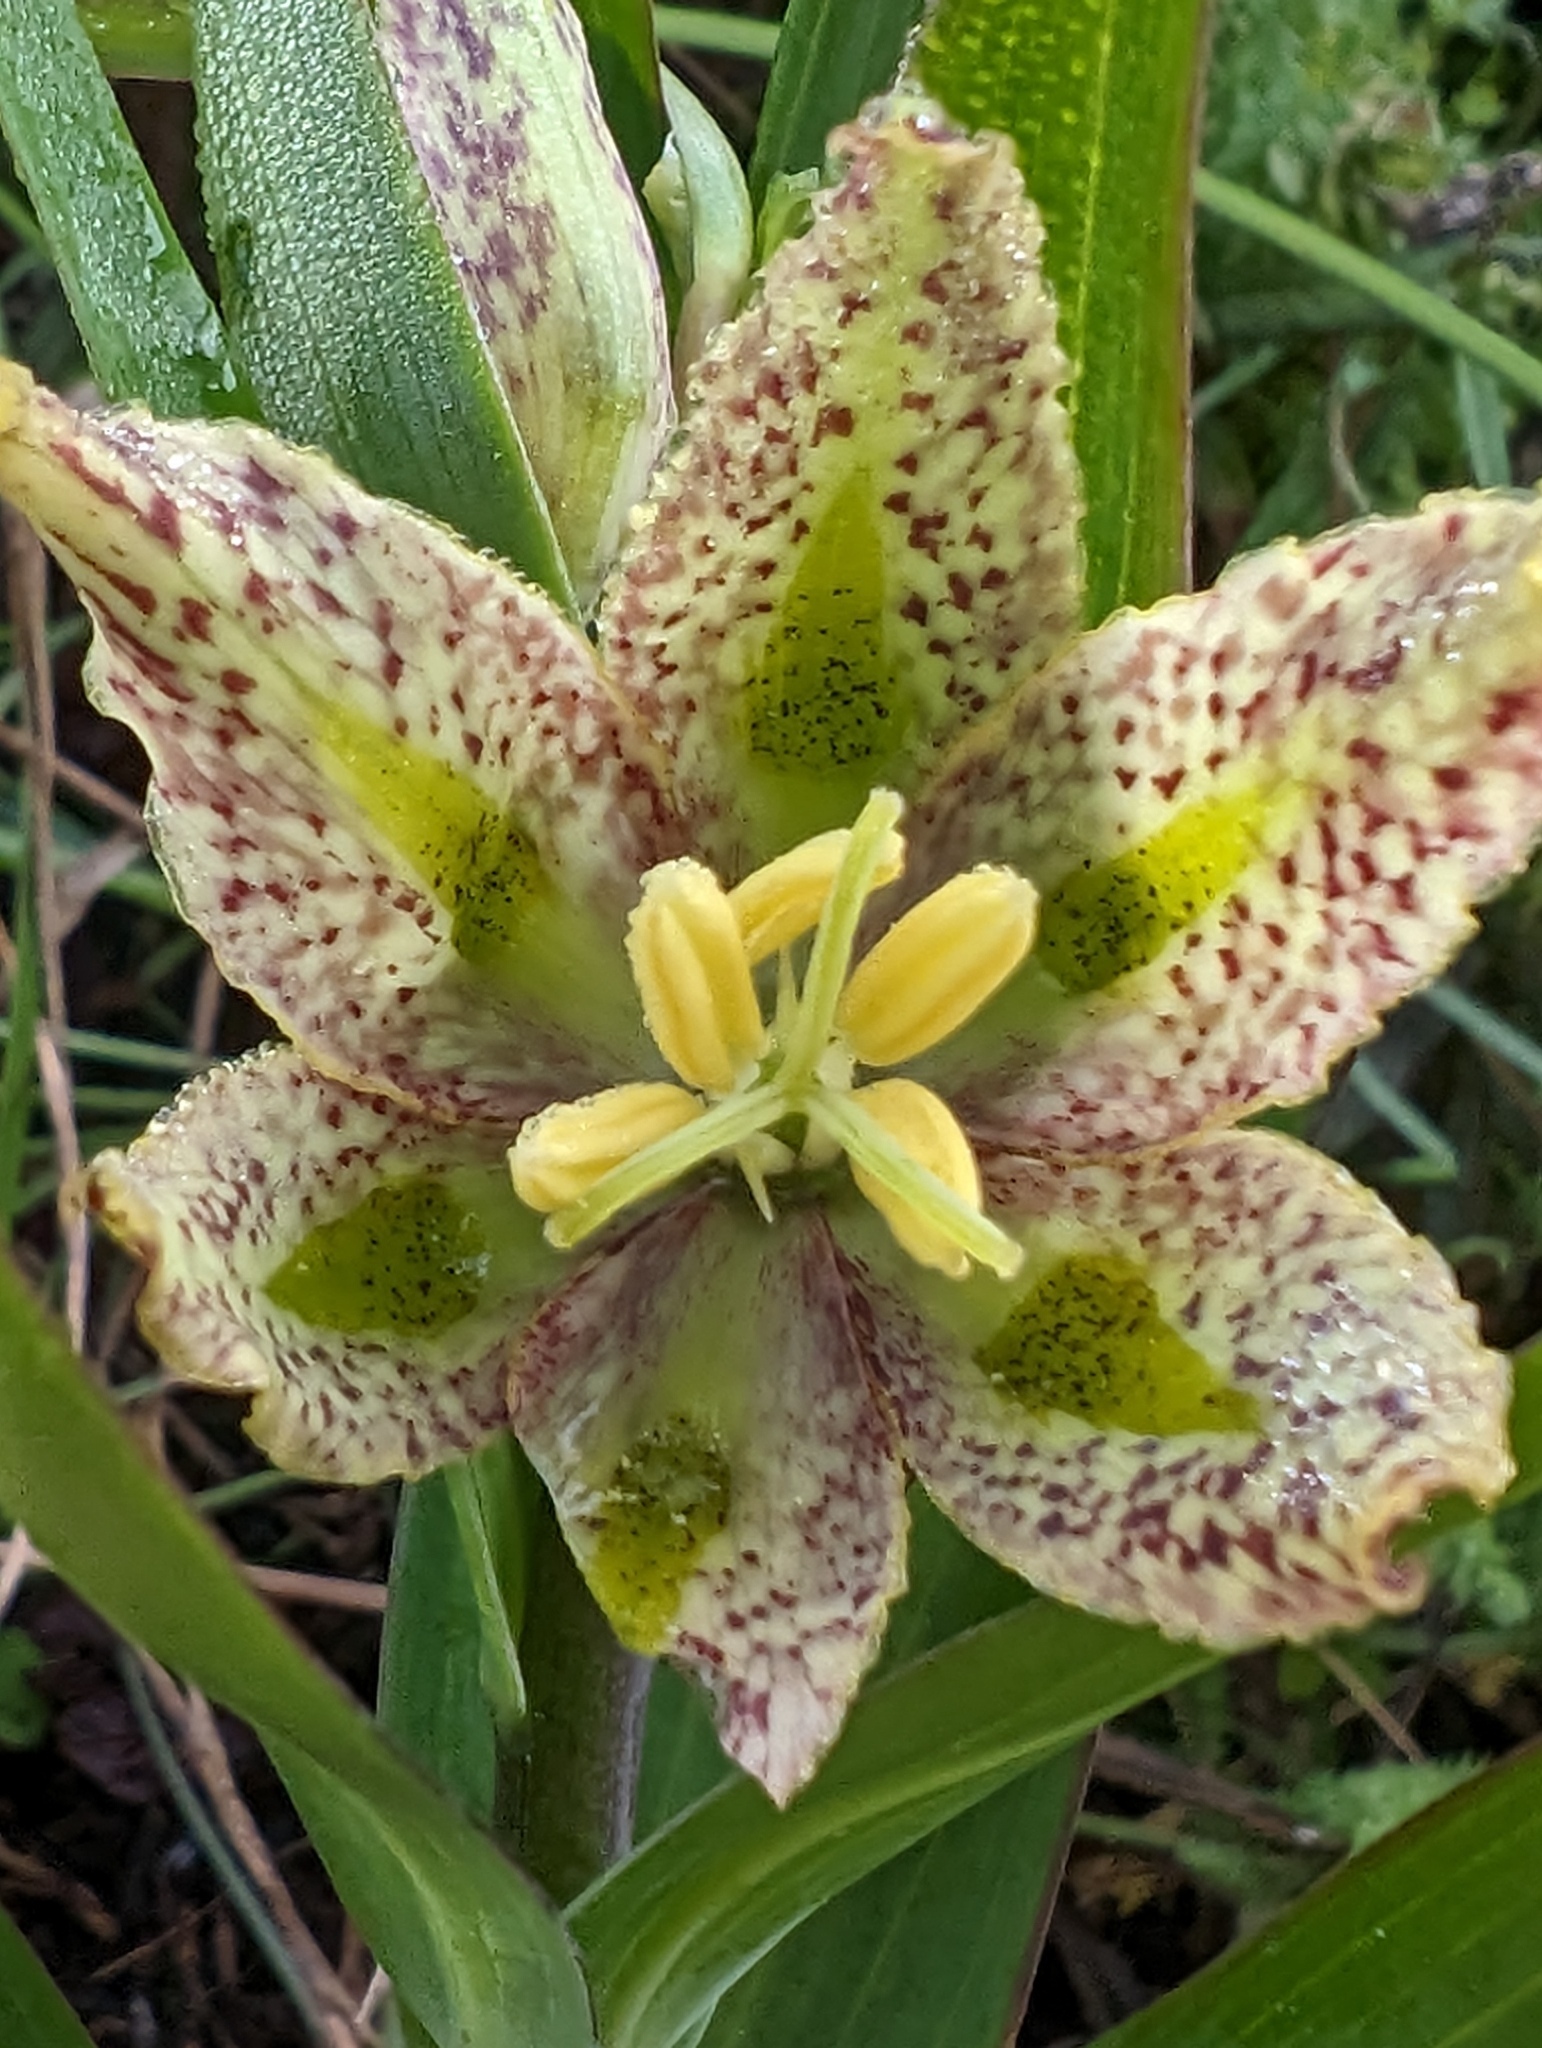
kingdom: Plantae
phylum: Tracheophyta
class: Liliopsida
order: Liliales
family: Liliaceae
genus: Fritillaria
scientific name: Fritillaria affinis
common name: Ojai fritillary
